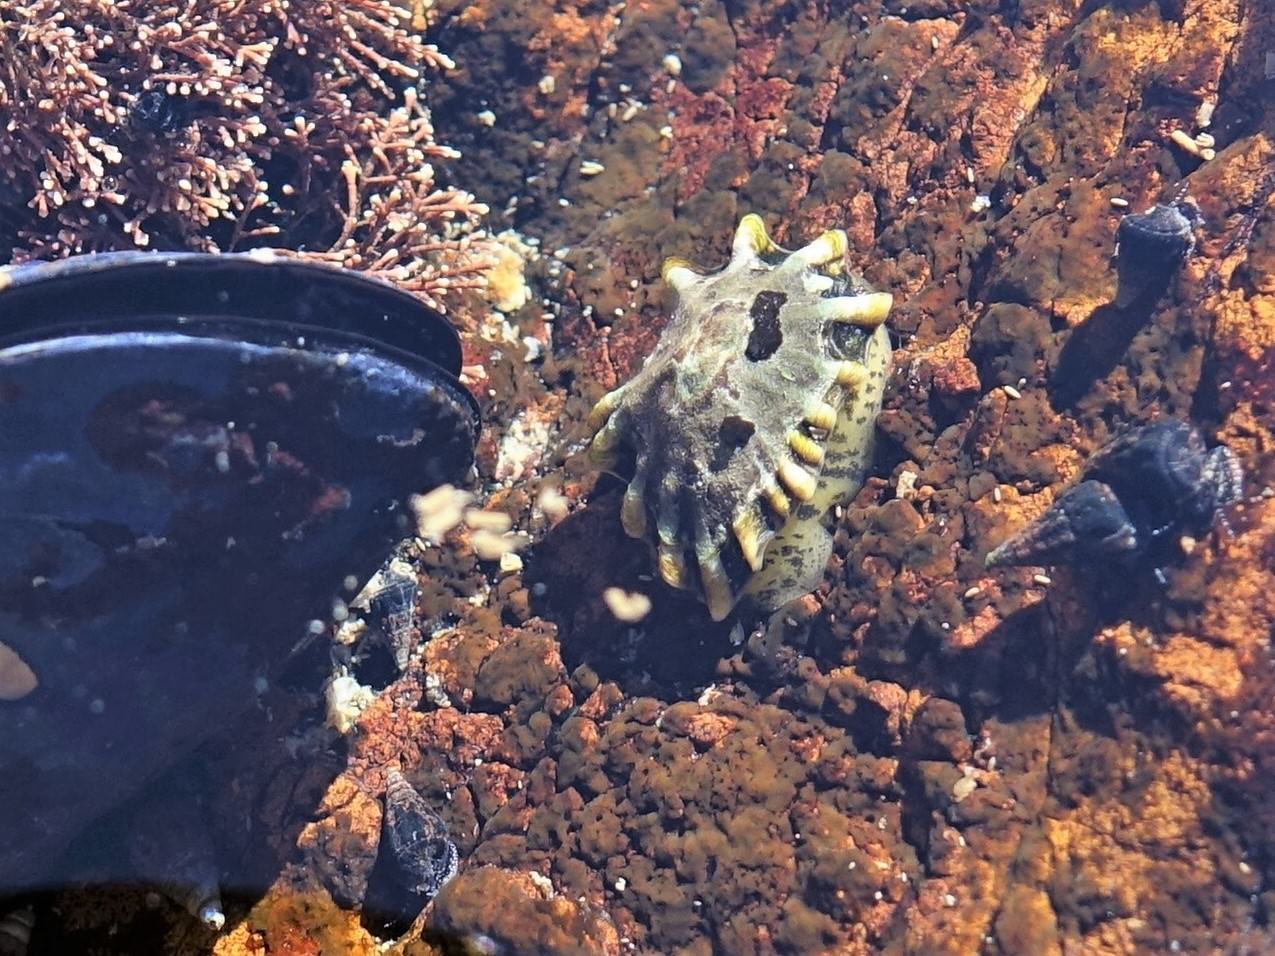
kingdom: Animalia
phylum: Mollusca
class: Gastropoda
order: Siphonariida
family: Siphonariidae
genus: Siphonaria
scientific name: Siphonaria australis
